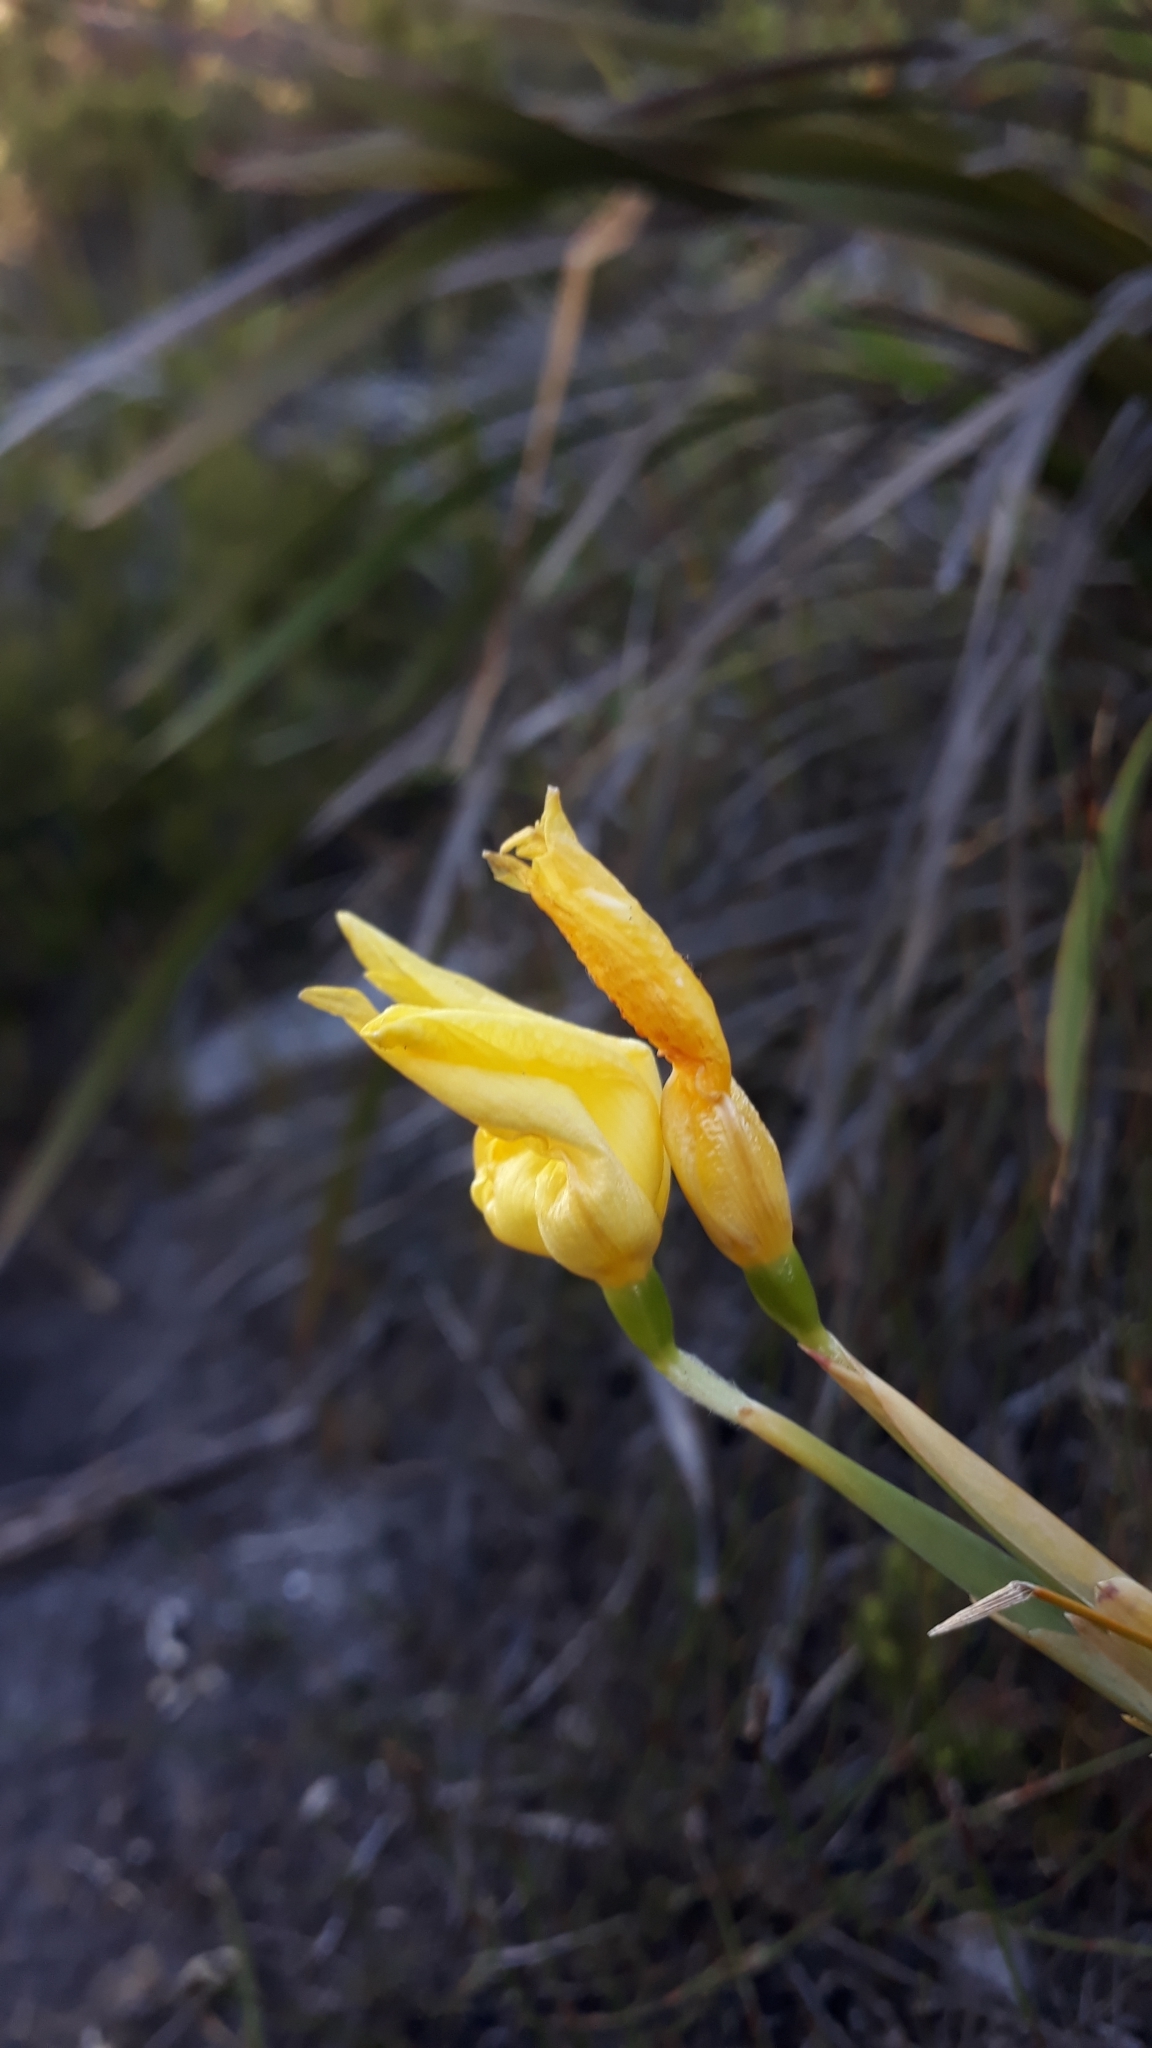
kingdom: Plantae
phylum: Tracheophyta
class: Liliopsida
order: Asparagales
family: Iridaceae
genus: Bobartia
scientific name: Bobartia gladiata
